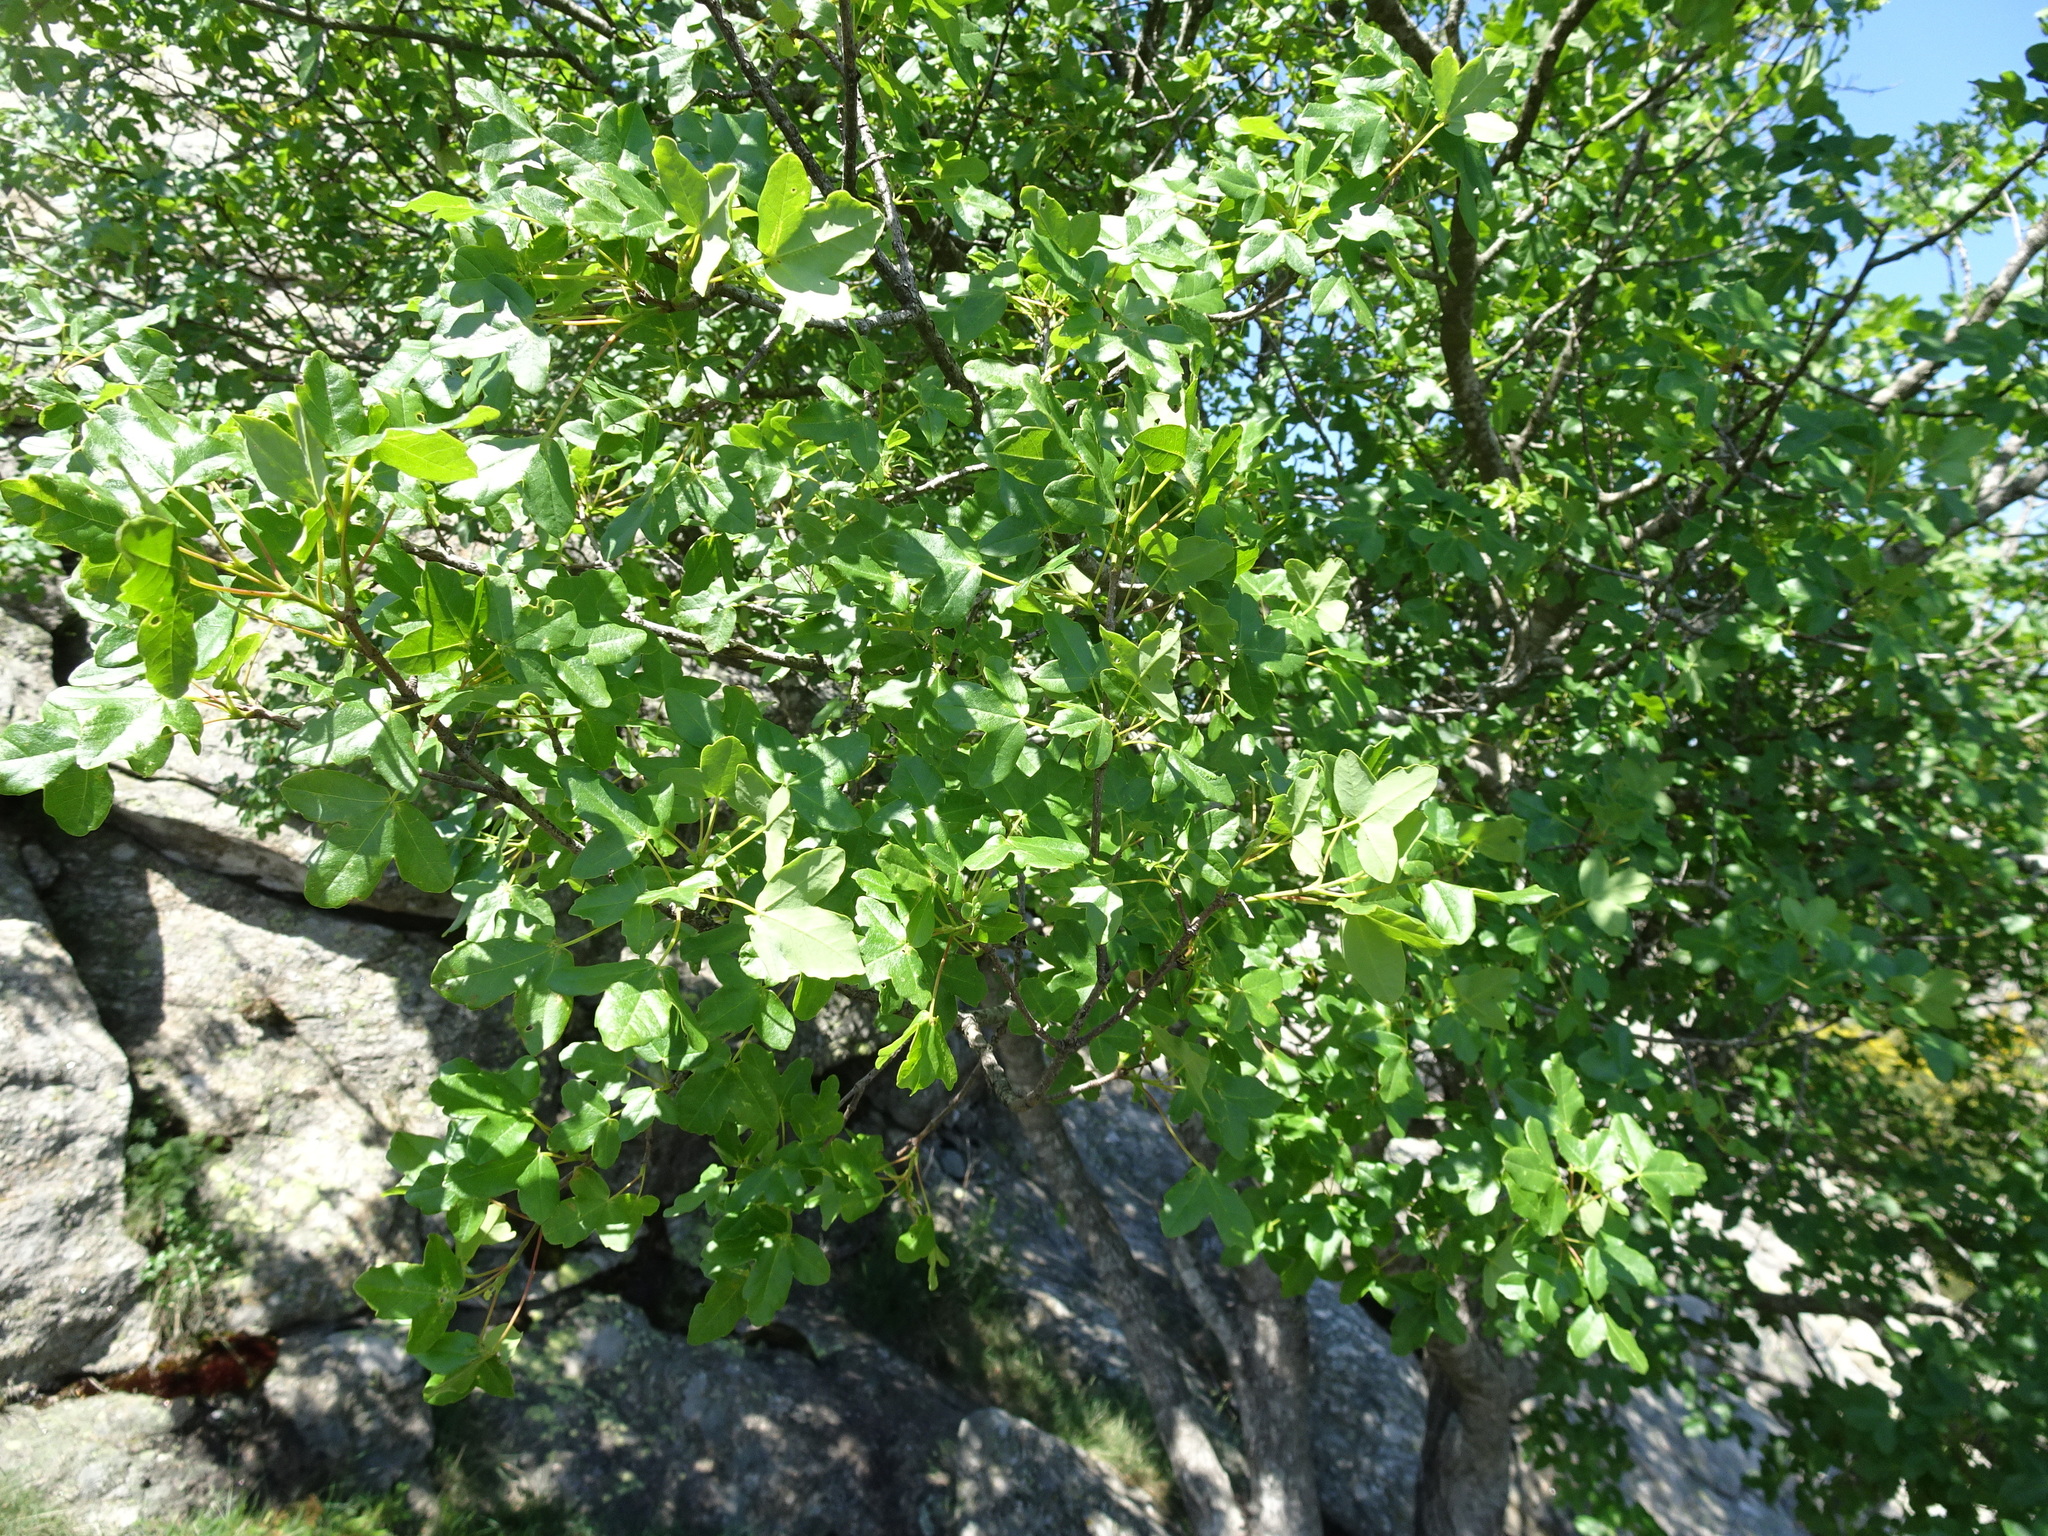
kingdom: Plantae
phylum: Tracheophyta
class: Magnoliopsida
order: Sapindales
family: Sapindaceae
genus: Acer
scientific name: Acer monspessulanum
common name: Montpellier maple
